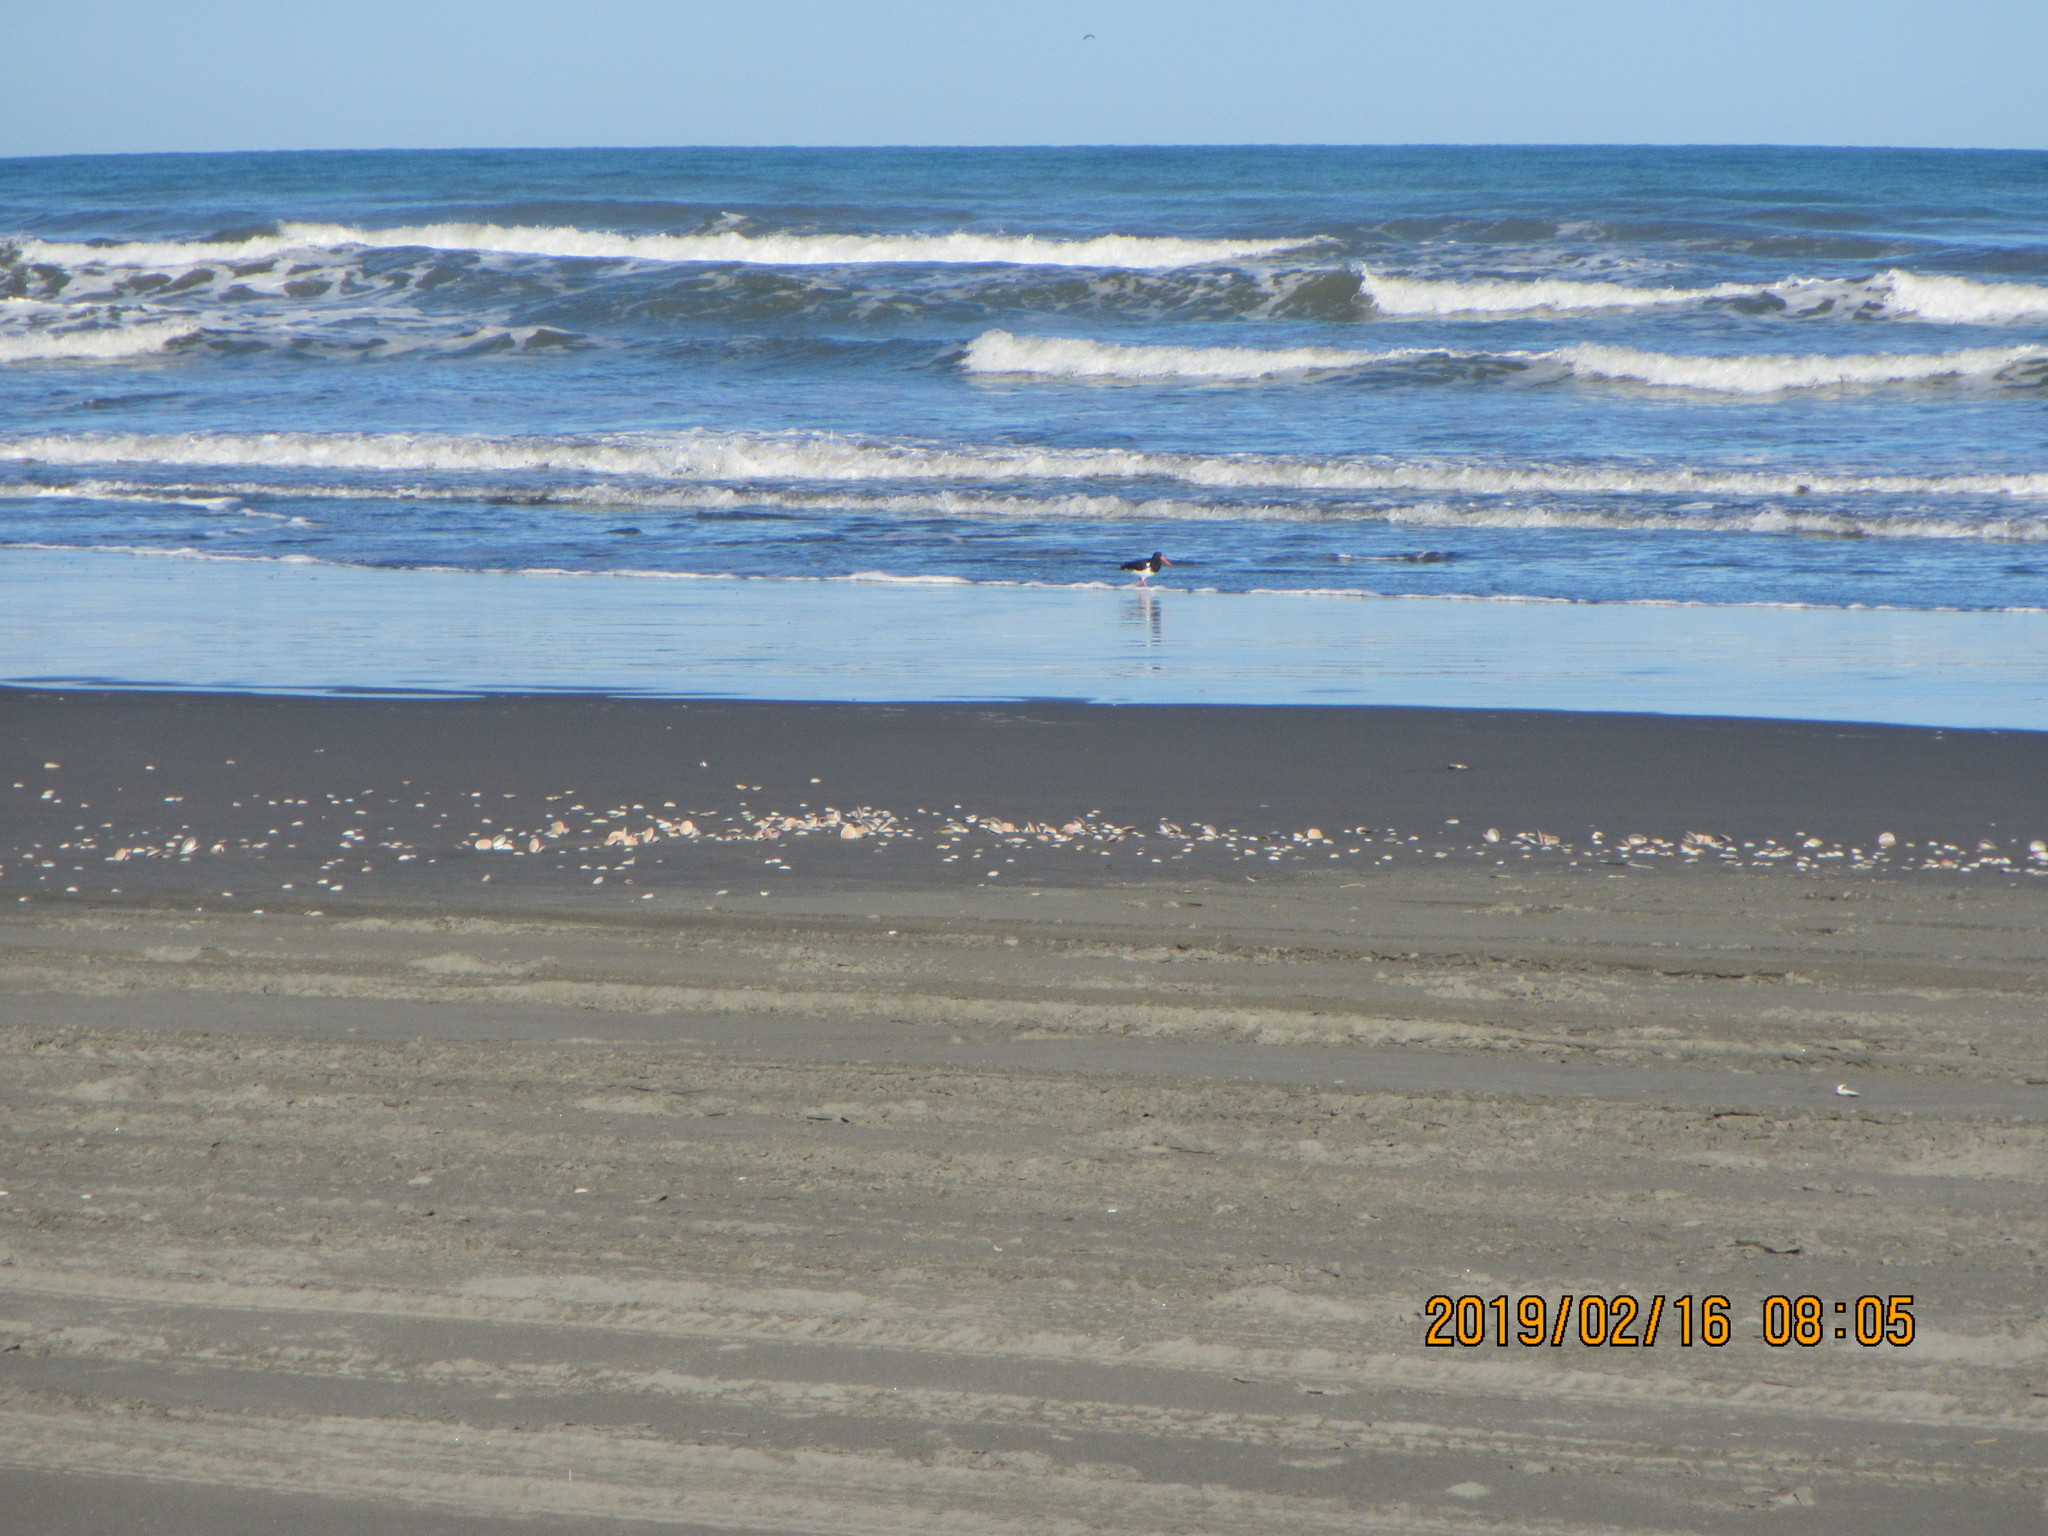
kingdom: Animalia
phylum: Chordata
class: Aves
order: Charadriiformes
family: Haematopodidae
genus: Haematopus
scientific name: Haematopus finschi
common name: South island oystercatcher
